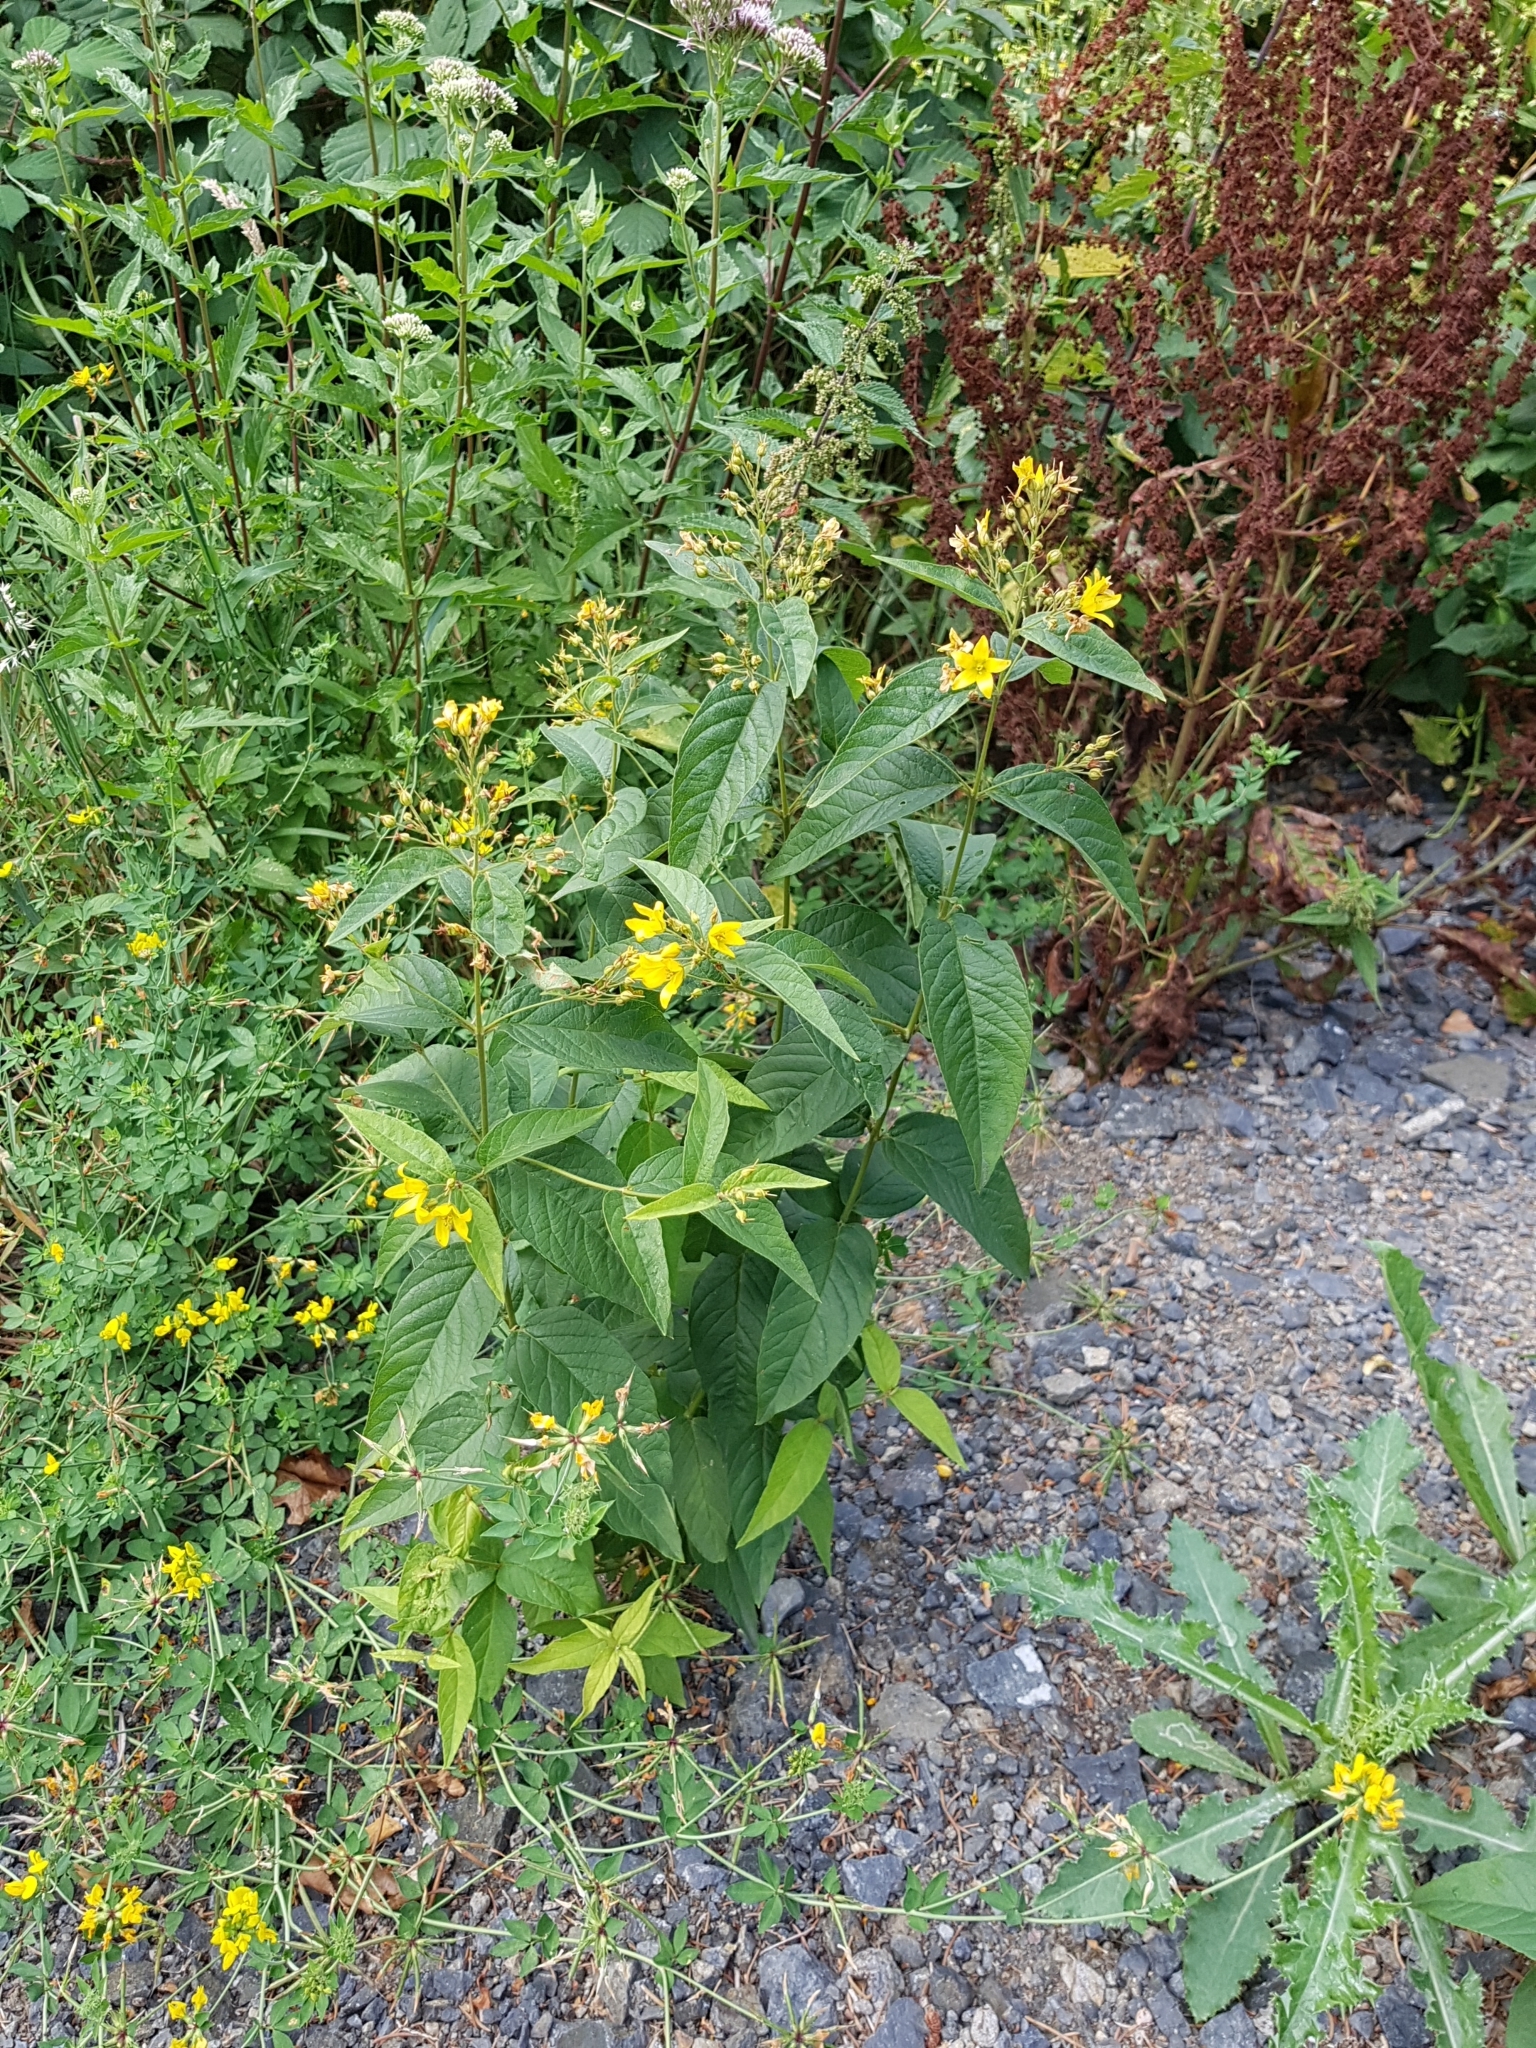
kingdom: Plantae
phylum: Tracheophyta
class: Magnoliopsida
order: Ericales
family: Primulaceae
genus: Lysimachia
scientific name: Lysimachia vulgaris
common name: Yellow loosestrife
